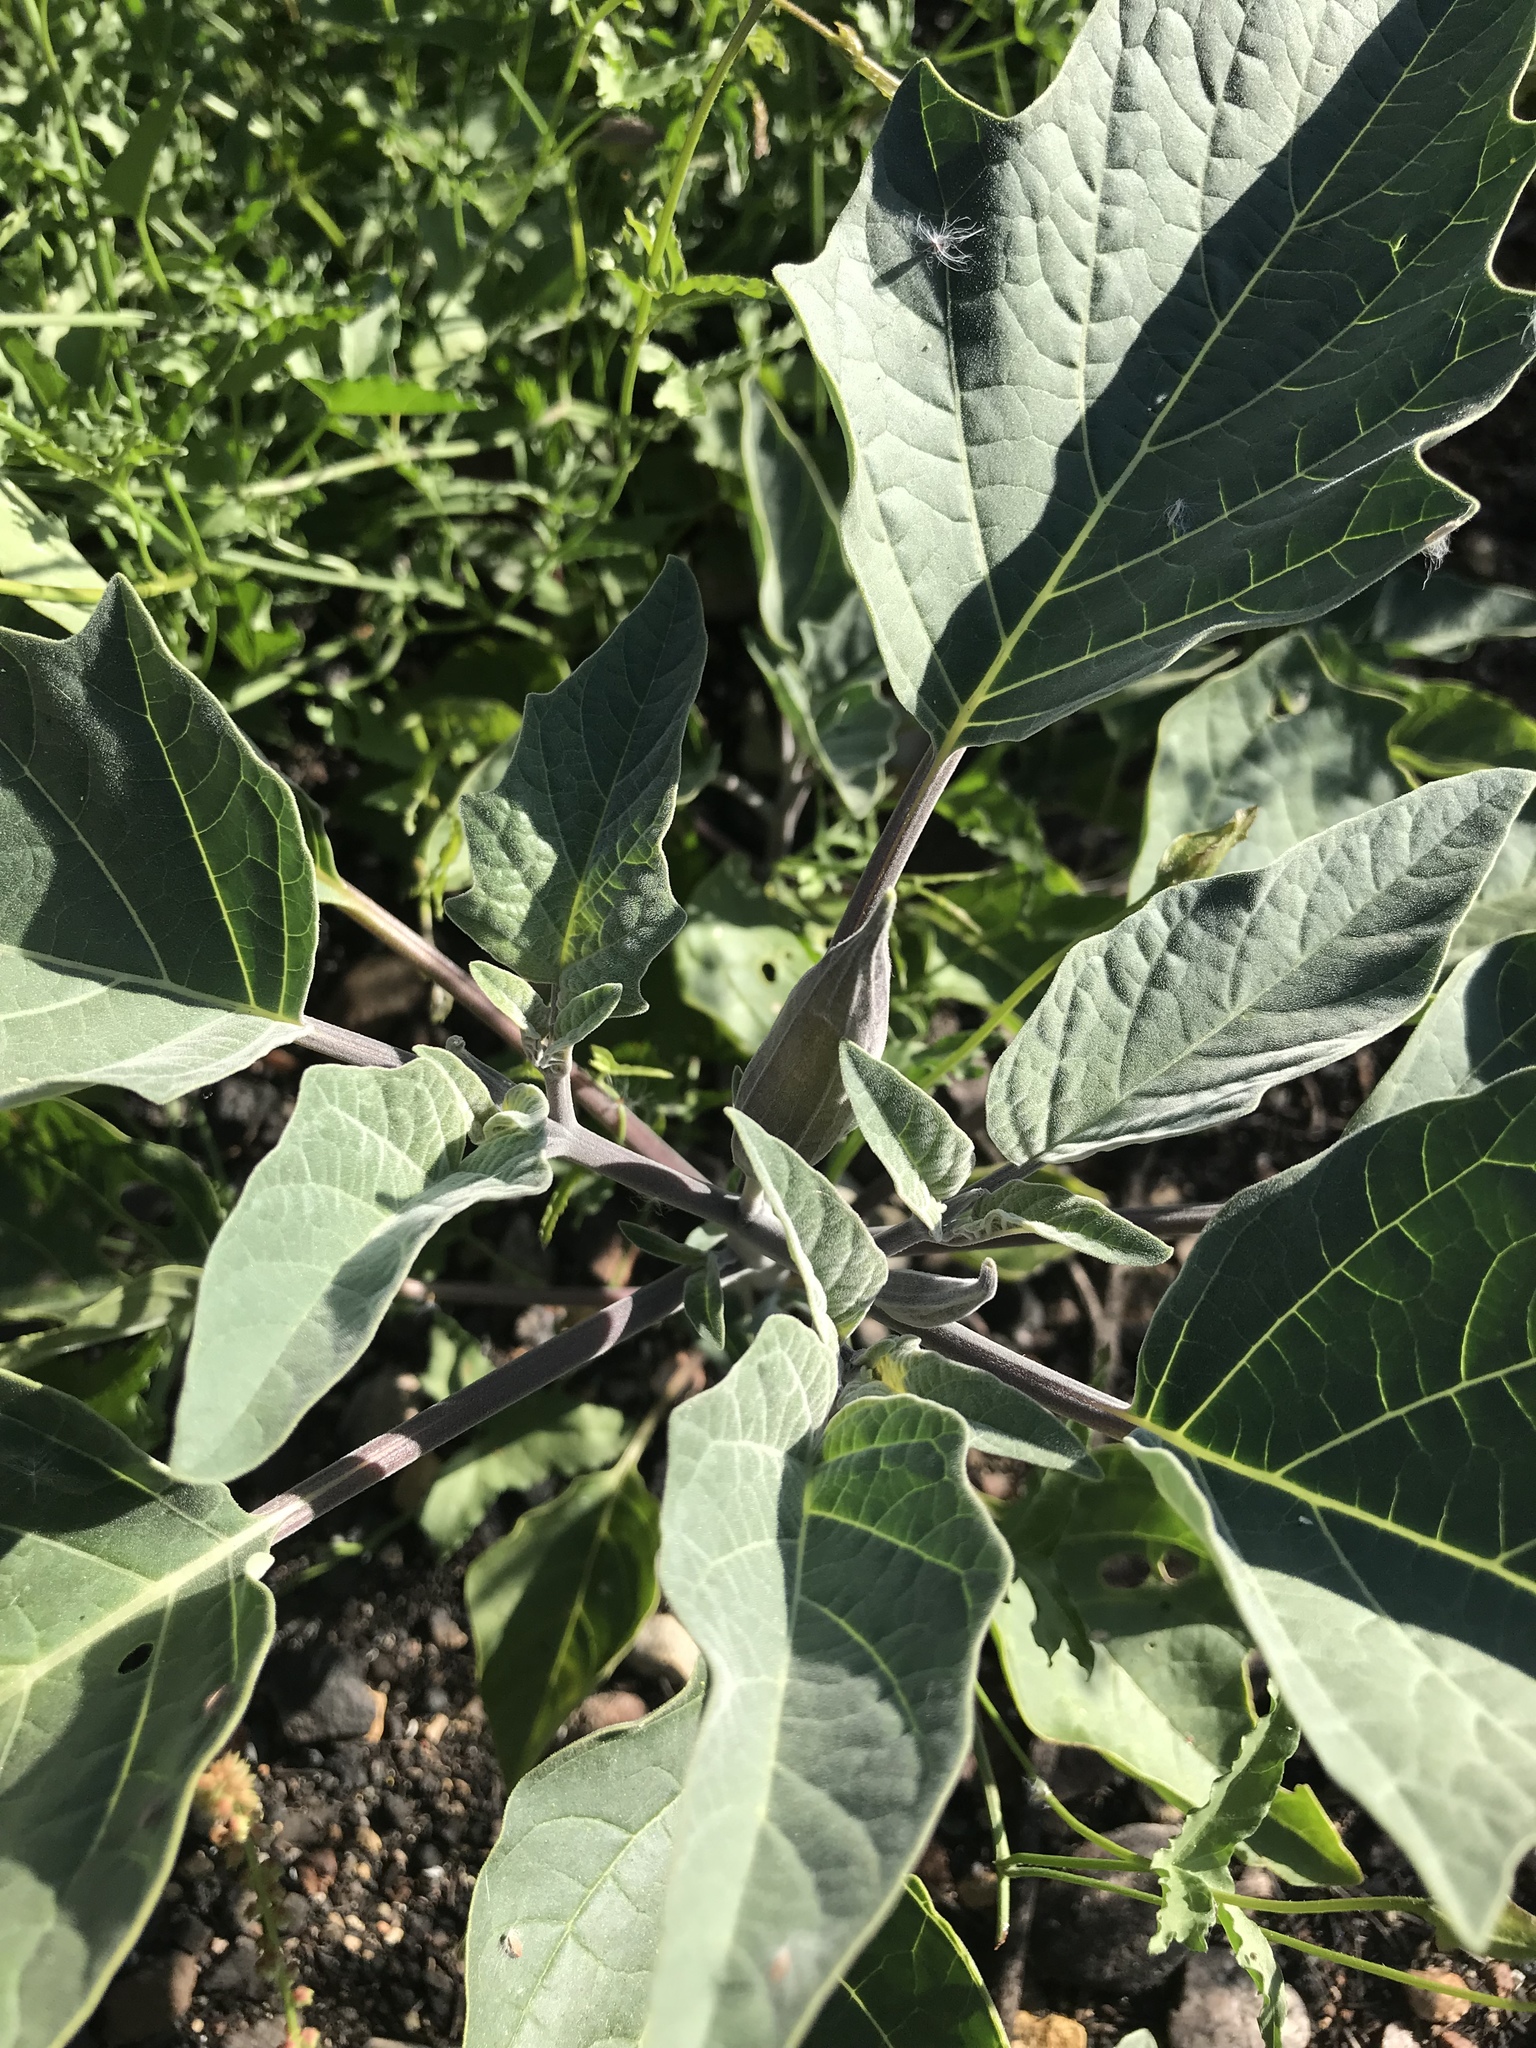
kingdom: Plantae
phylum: Tracheophyta
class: Magnoliopsida
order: Solanales
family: Solanaceae
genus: Datura
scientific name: Datura wrightii
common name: Sacred thorn-apple
